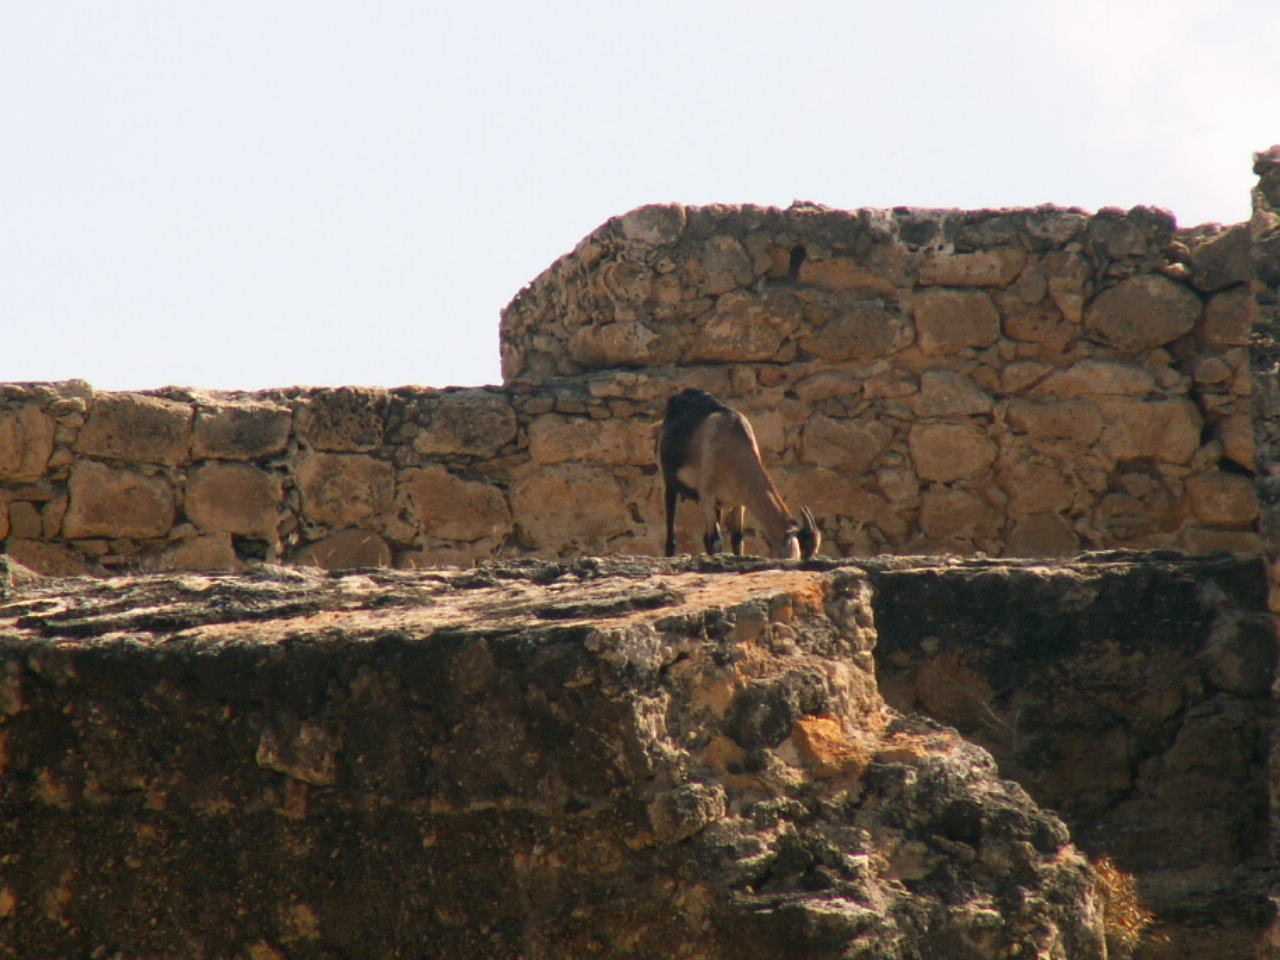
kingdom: Animalia
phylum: Chordata
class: Mammalia
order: Artiodactyla
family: Bovidae
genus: Capra
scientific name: Capra hircus
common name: Domestic goat
